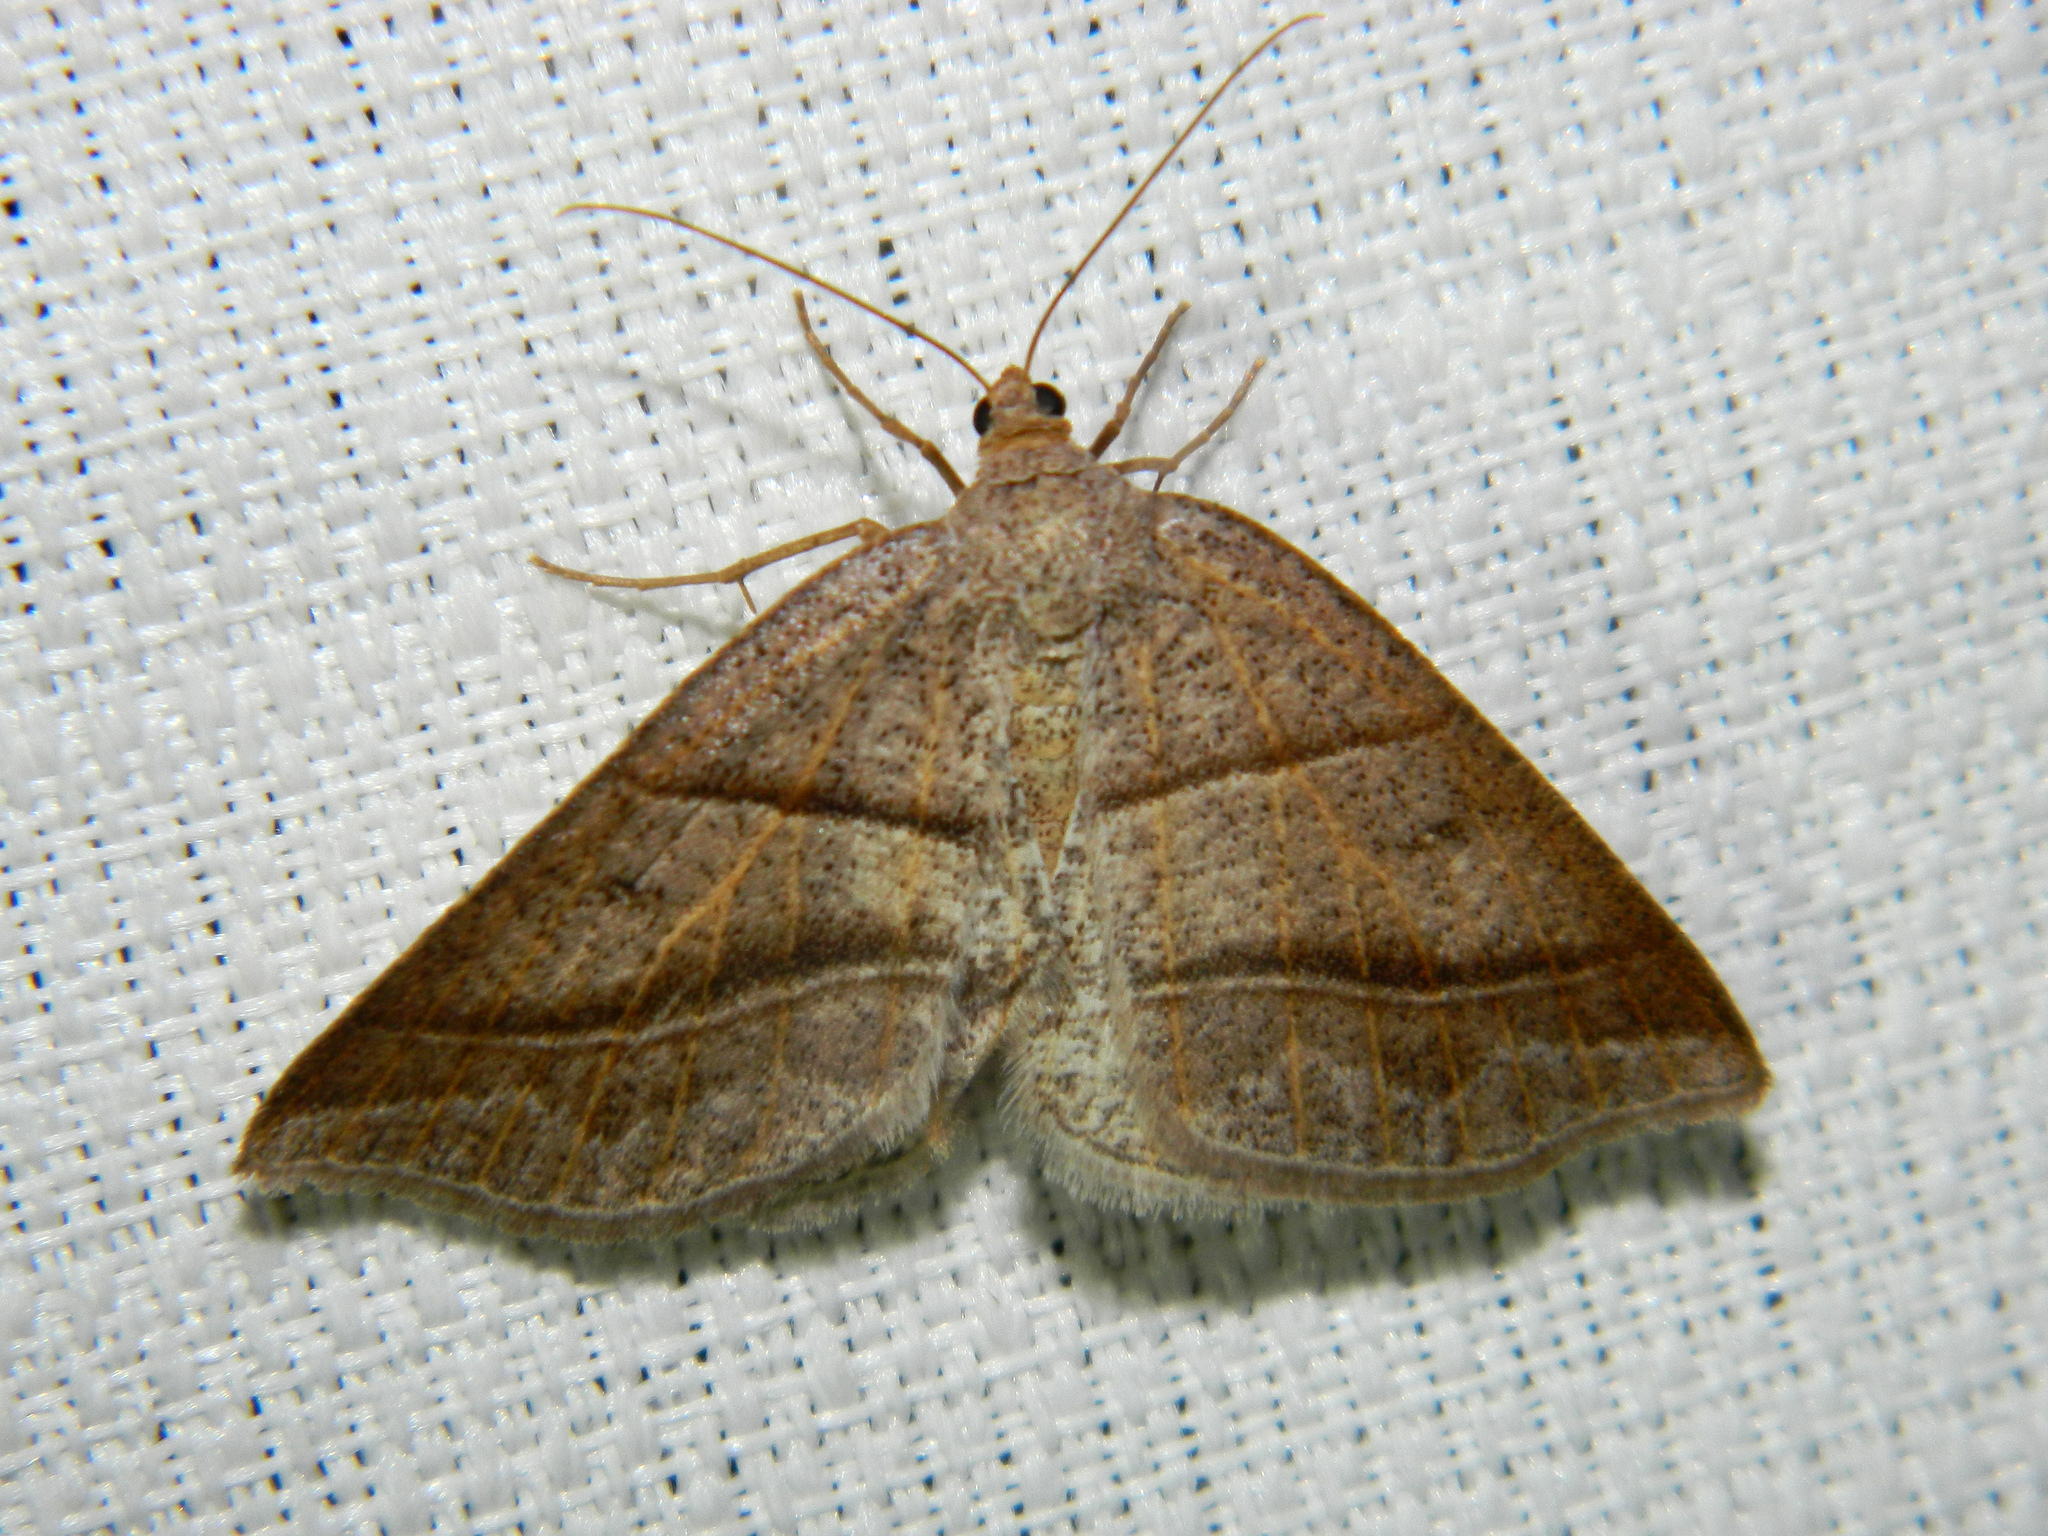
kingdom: Animalia
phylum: Arthropoda
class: Insecta
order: Lepidoptera
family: Pterophoridae
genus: Pterophorus
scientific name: Pterophorus Petrophora subaequaria
